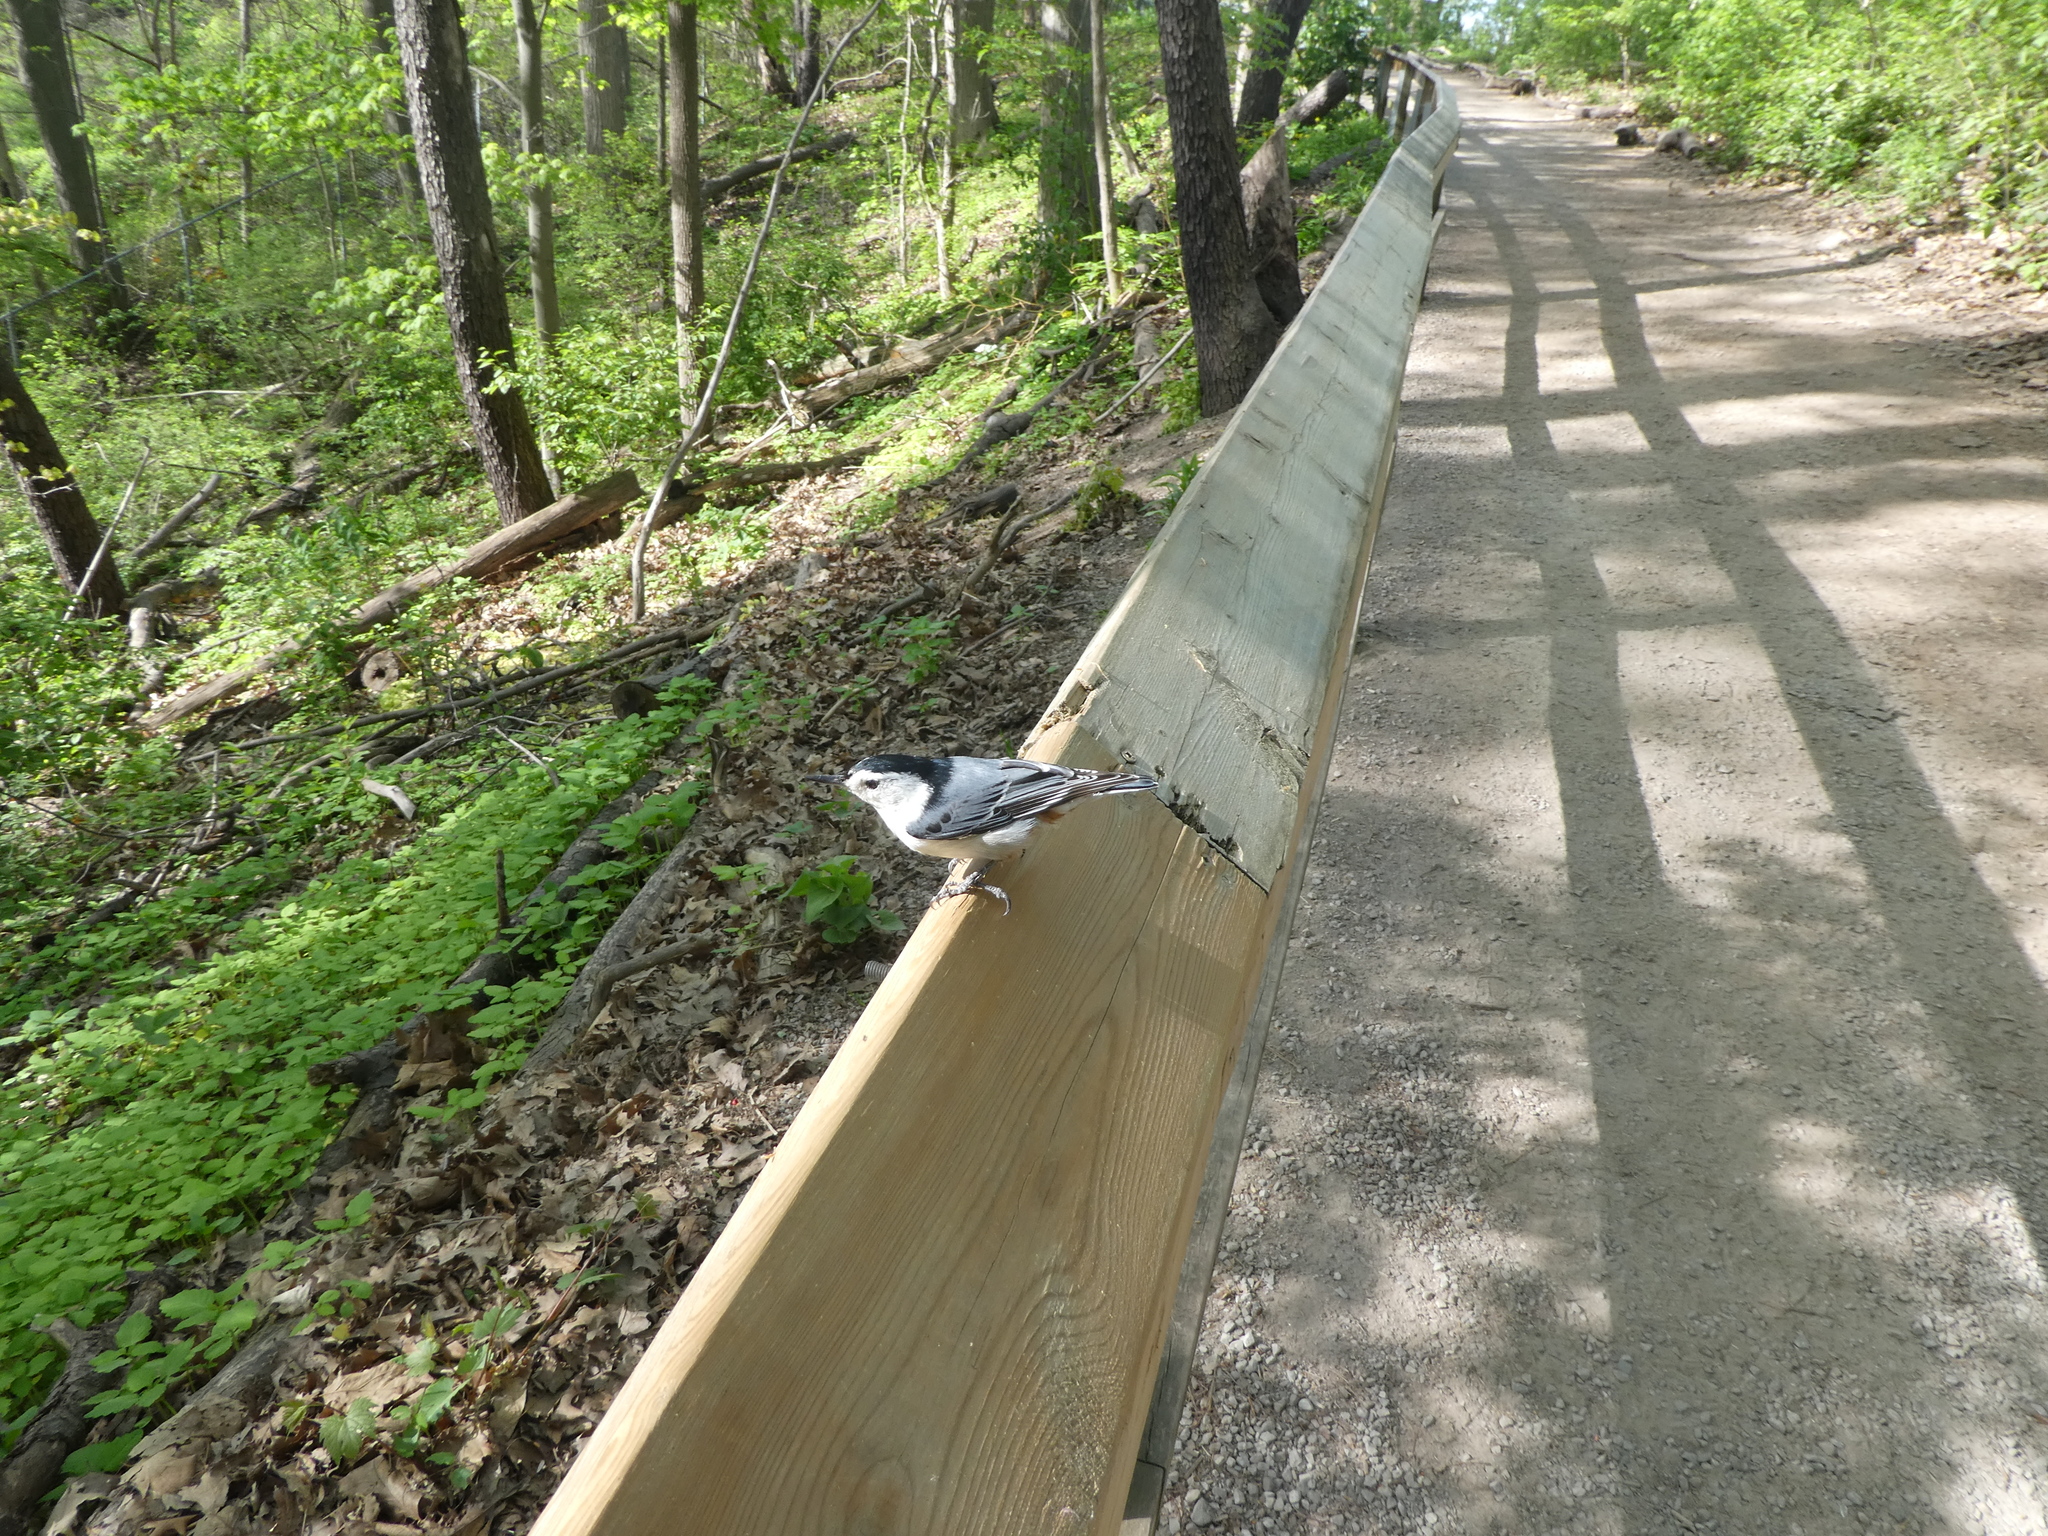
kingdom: Animalia
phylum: Chordata
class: Aves
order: Passeriformes
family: Sittidae
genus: Sitta
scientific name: Sitta carolinensis
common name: White-breasted nuthatch
